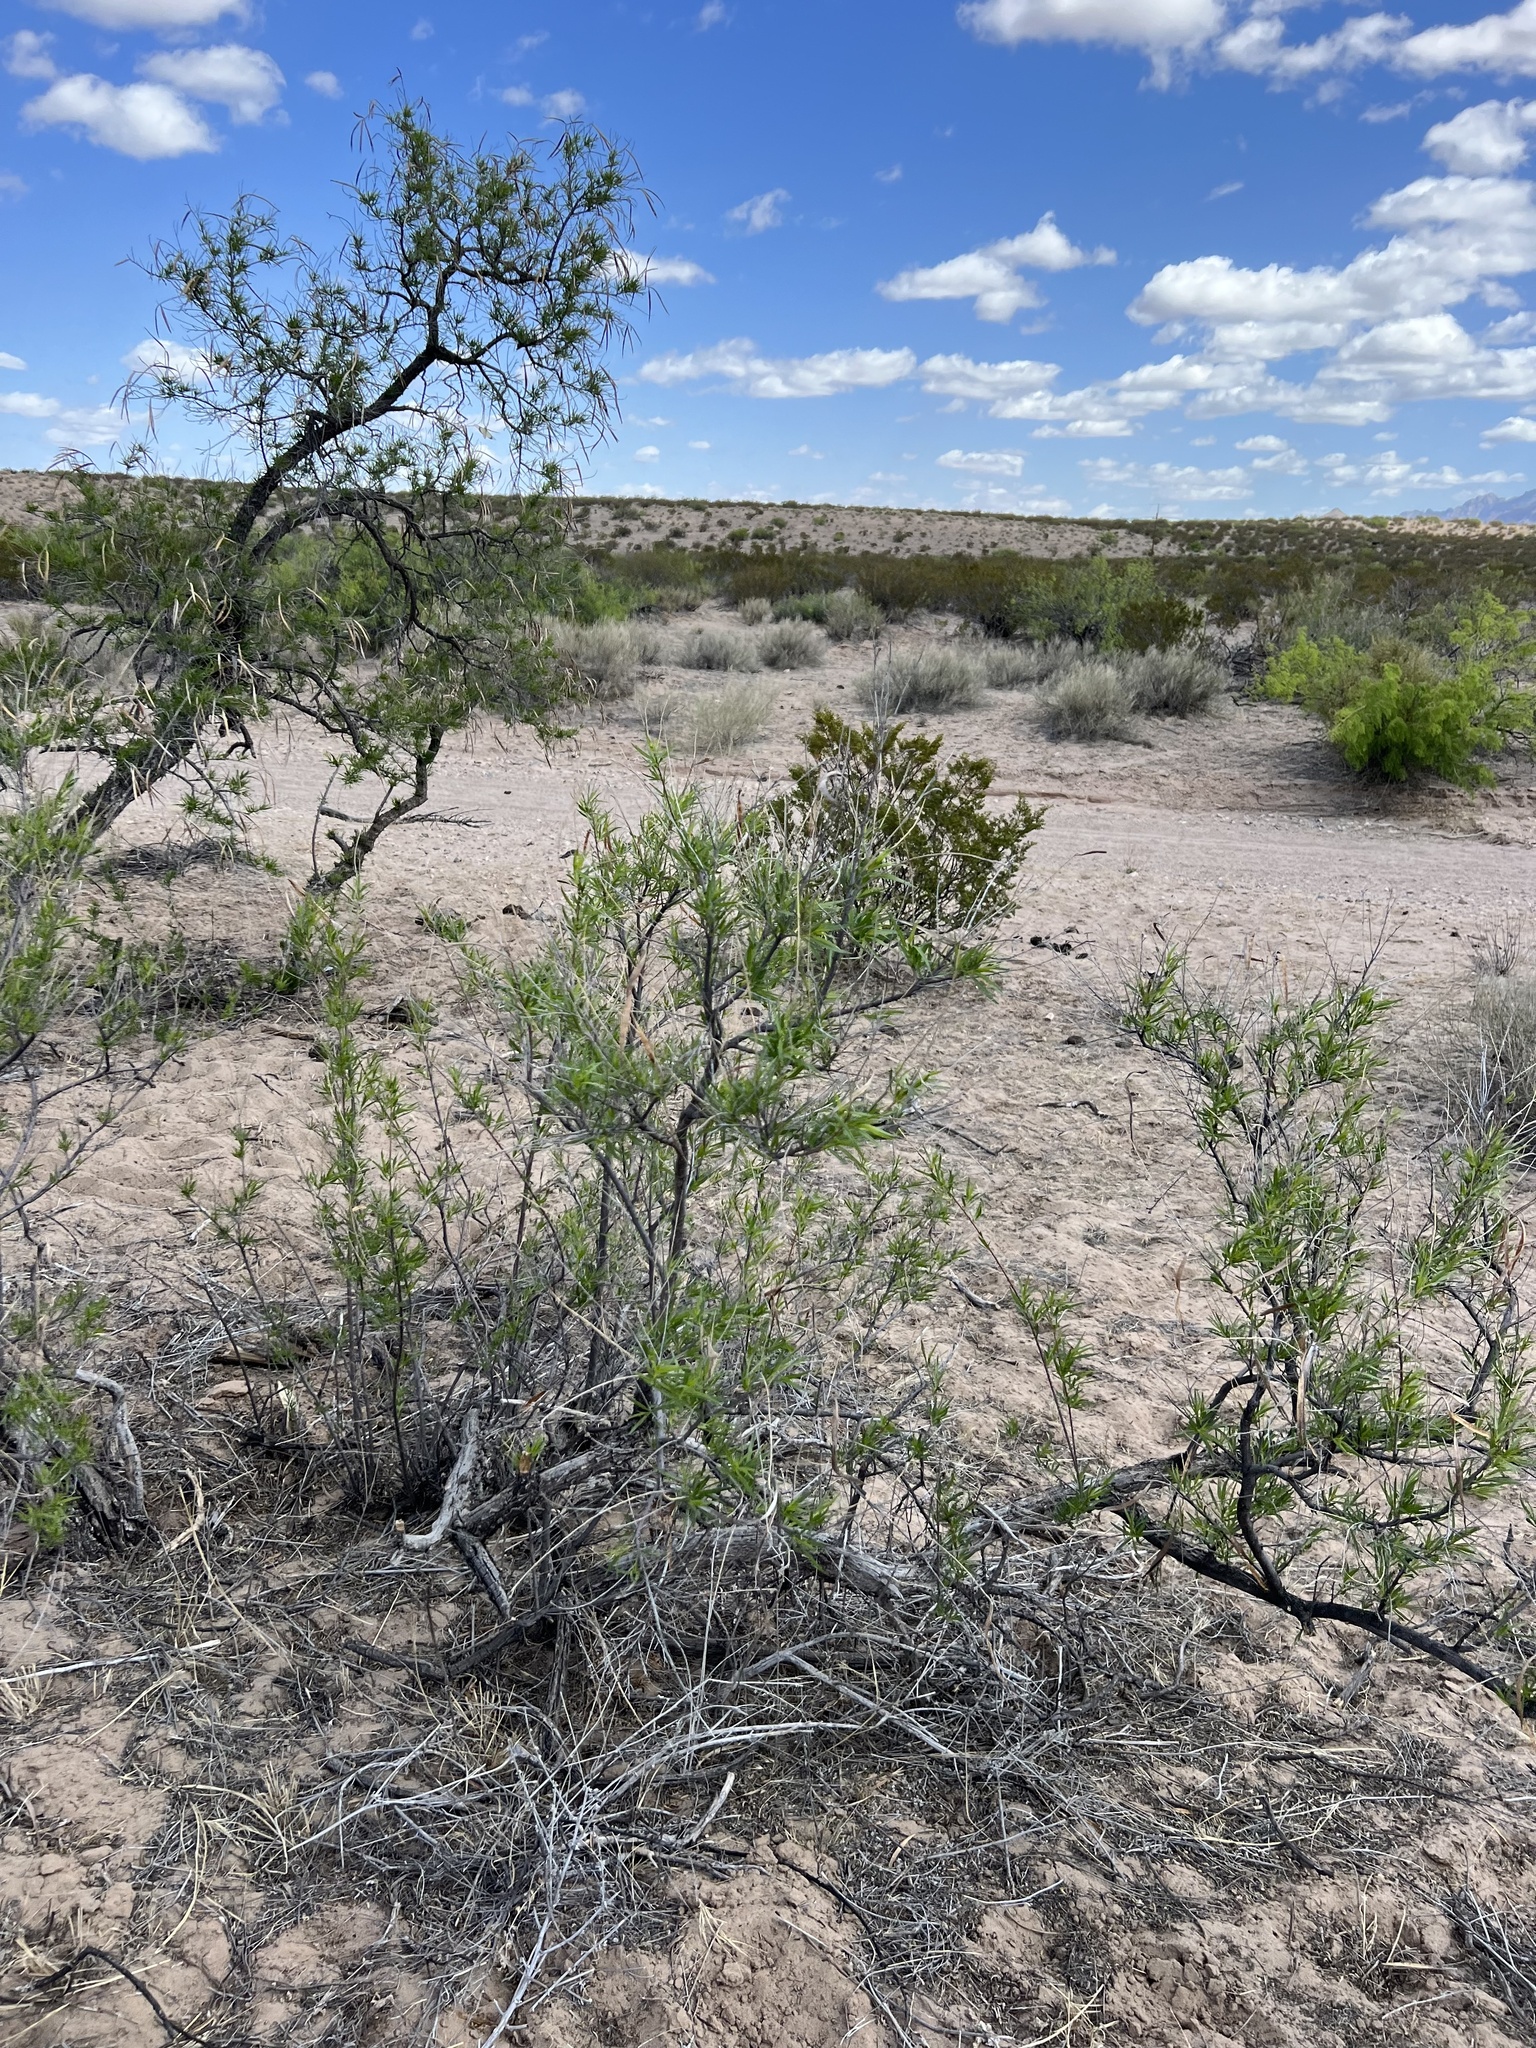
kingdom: Plantae
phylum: Tracheophyta
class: Magnoliopsida
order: Lamiales
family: Bignoniaceae
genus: Chilopsis
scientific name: Chilopsis linearis
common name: Desert-willow
